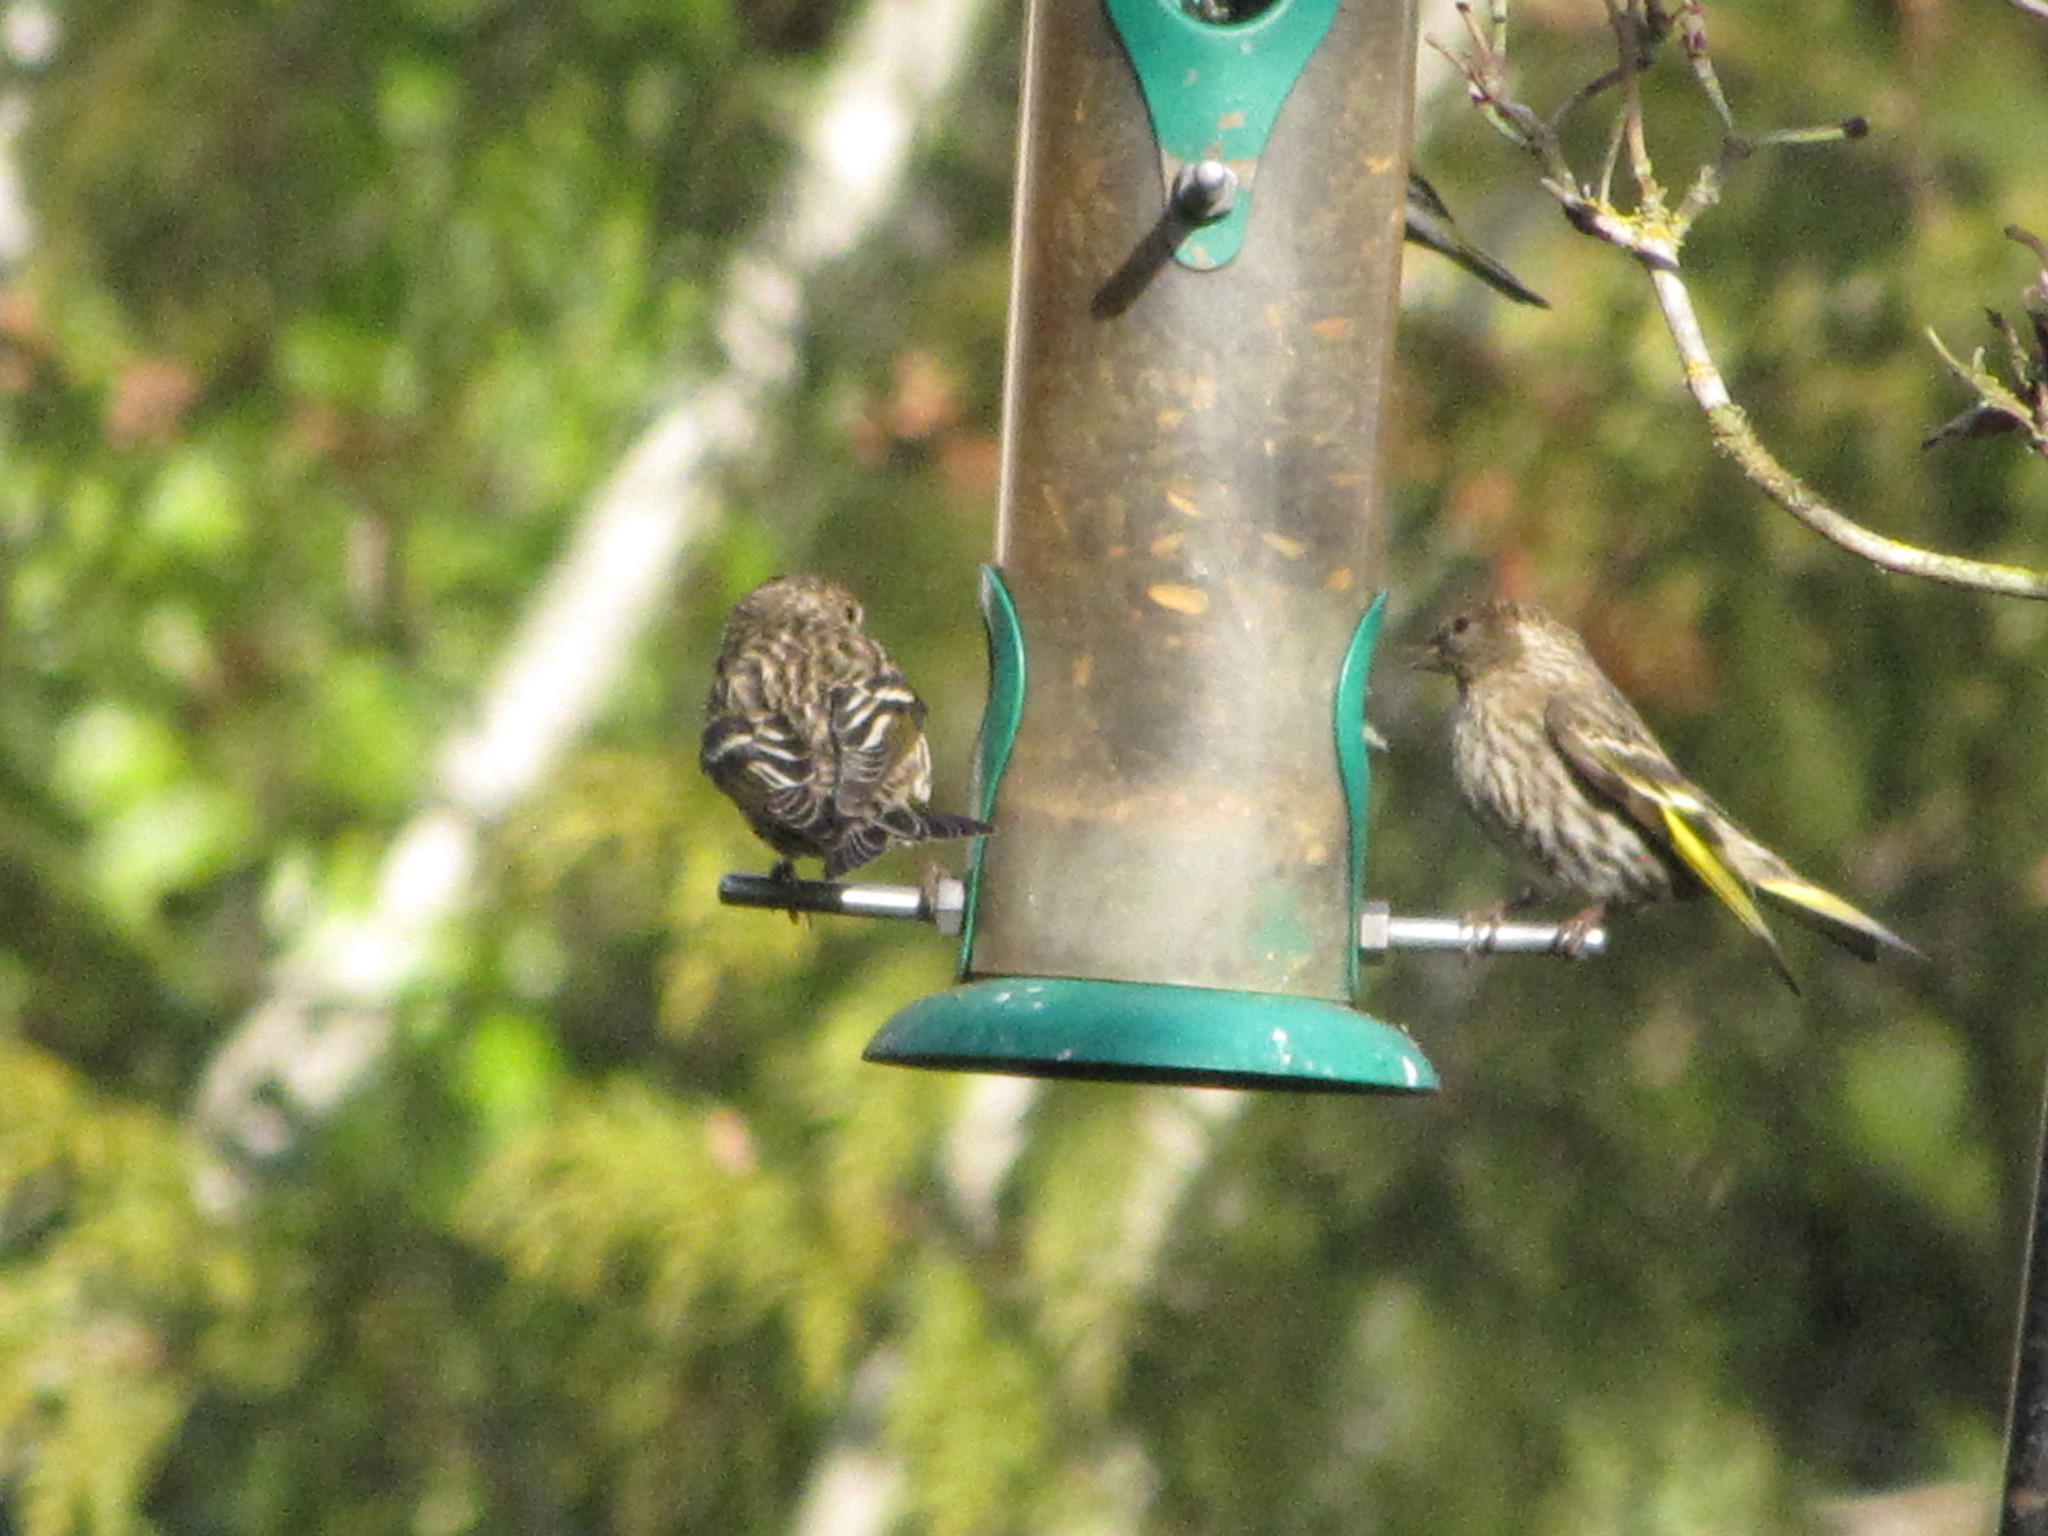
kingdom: Animalia
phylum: Chordata
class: Aves
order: Passeriformes
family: Fringillidae
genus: Spinus
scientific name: Spinus pinus
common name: Pine siskin
